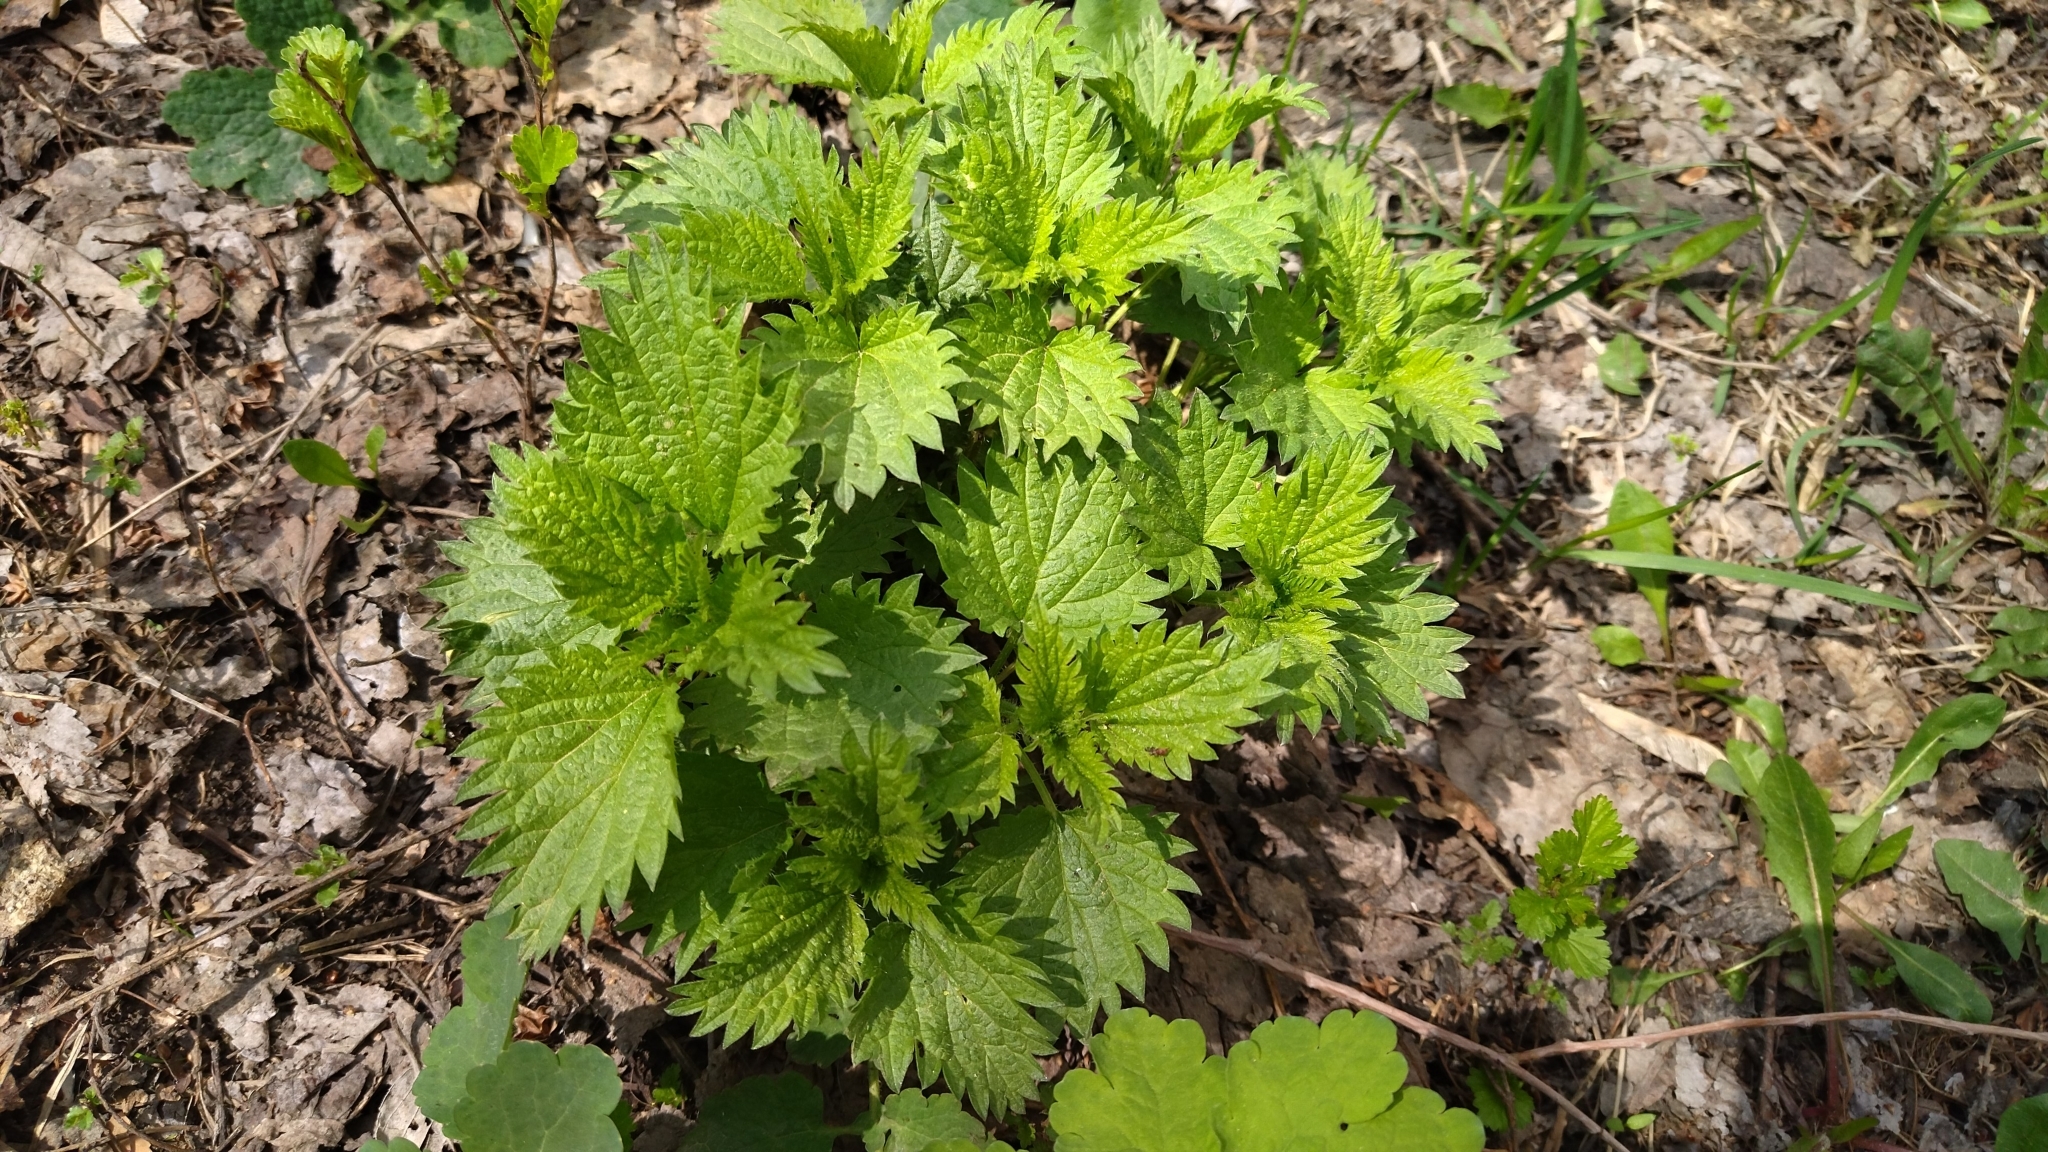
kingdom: Plantae
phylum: Tracheophyta
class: Magnoliopsida
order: Rosales
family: Urticaceae
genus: Urtica
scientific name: Urtica dioica
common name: Common nettle
